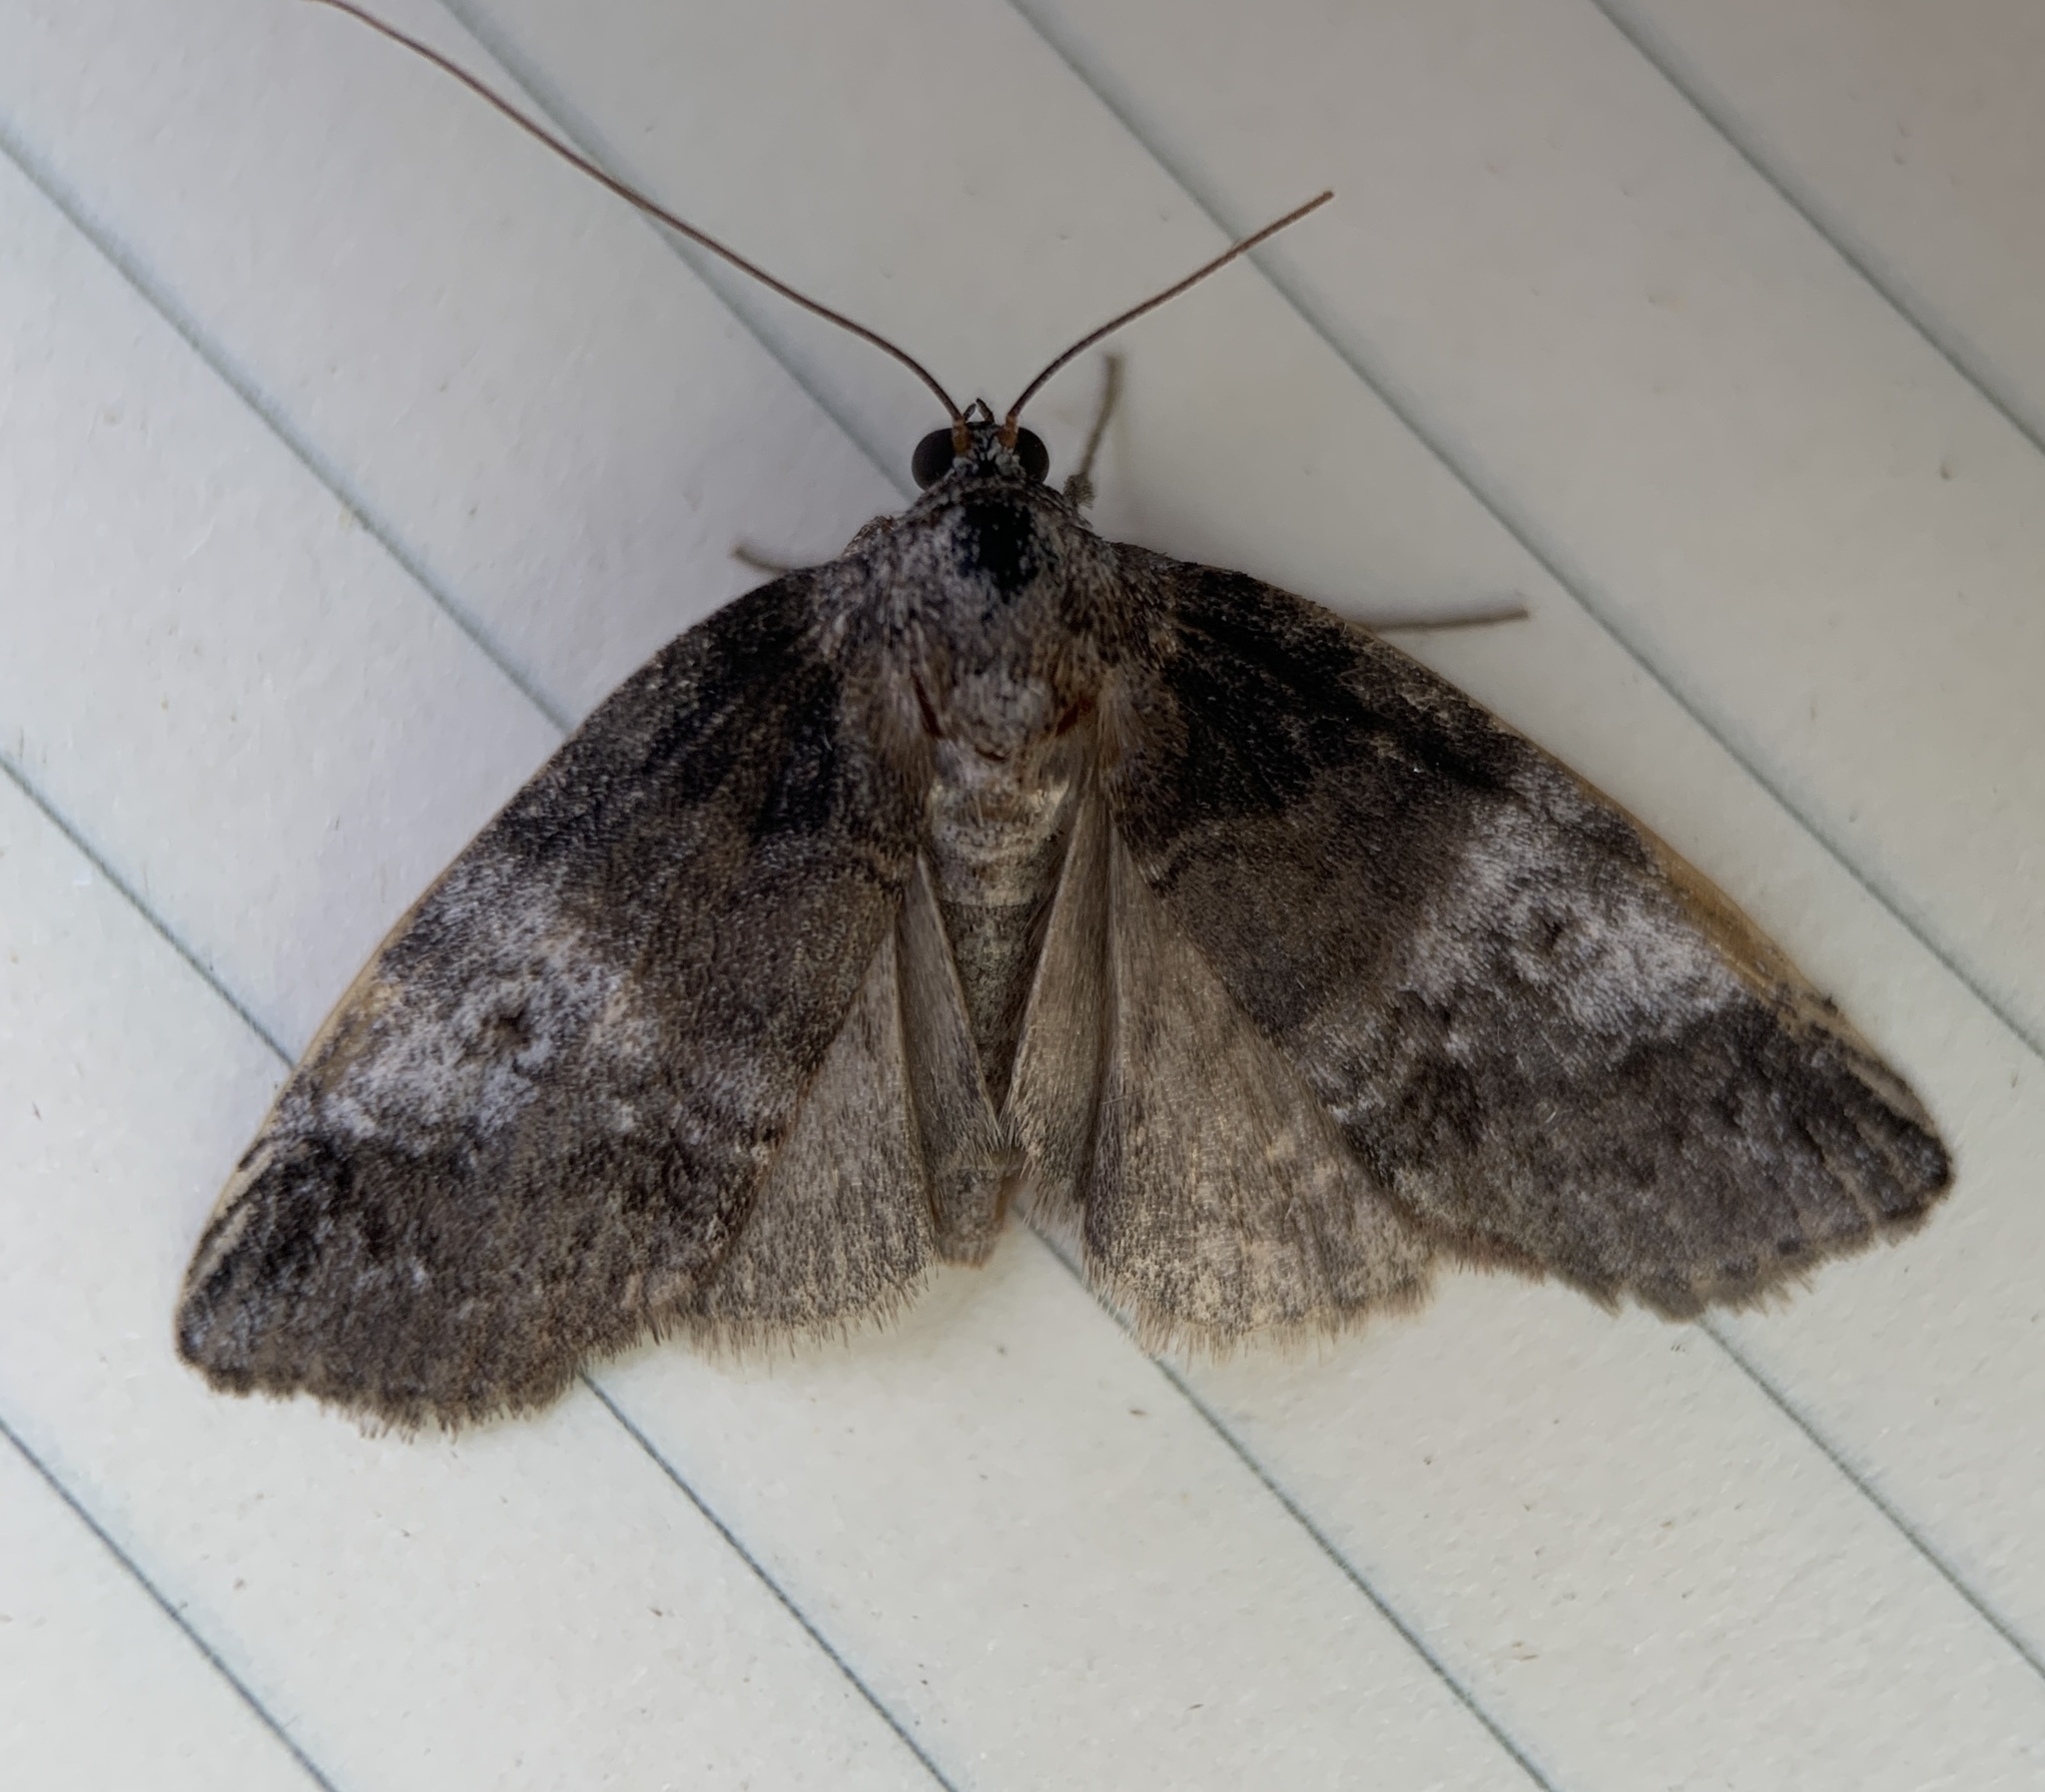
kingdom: Animalia
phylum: Arthropoda
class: Insecta
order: Lepidoptera
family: Nolidae
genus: Baileya
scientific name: Baileya ophthalmica
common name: Eyed baileya moth
